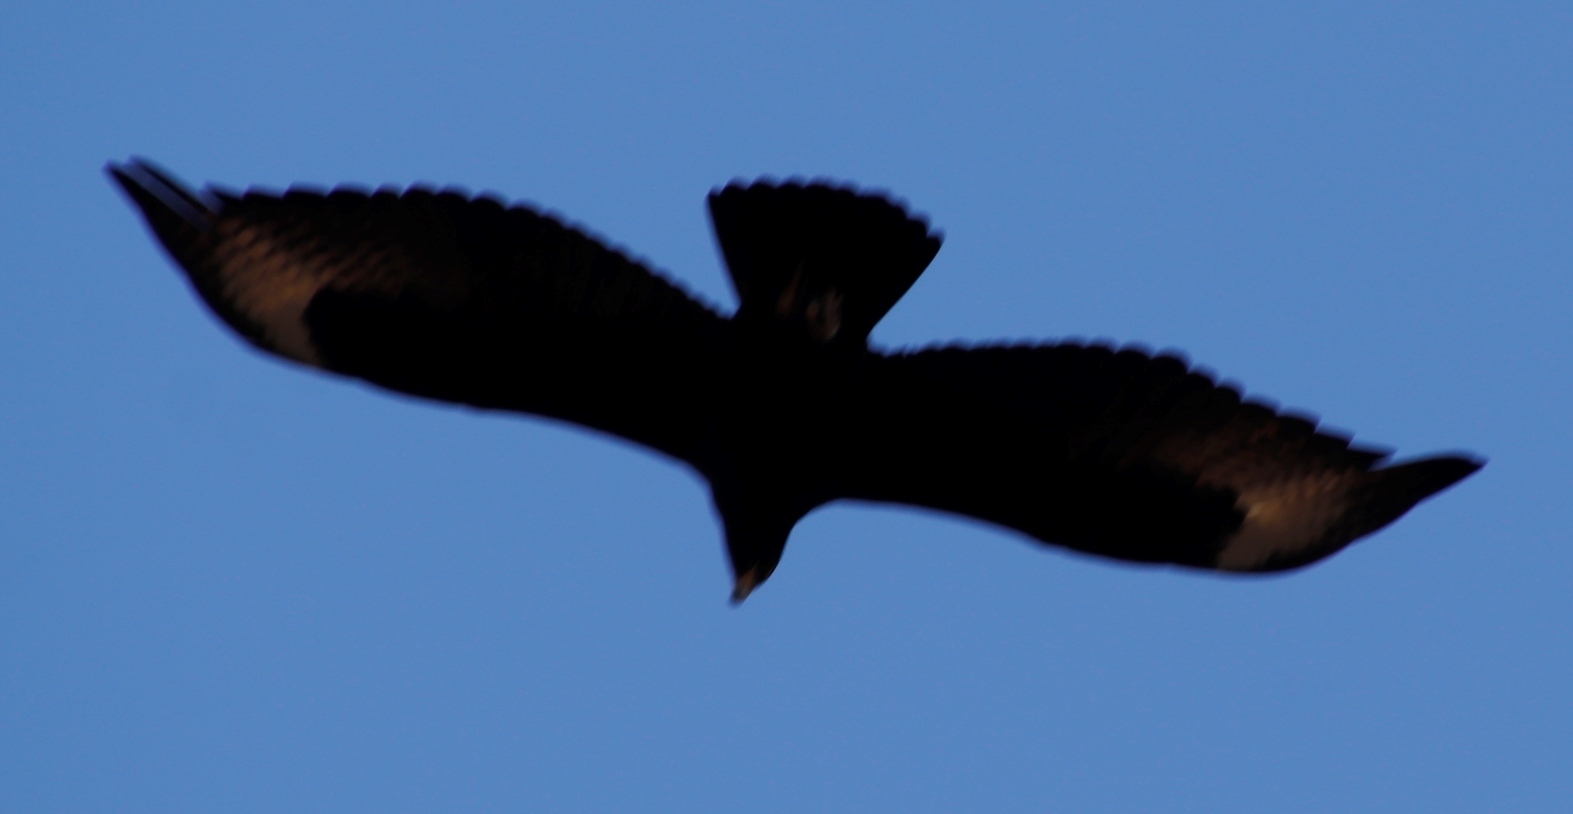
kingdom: Animalia
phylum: Chordata
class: Aves
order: Accipitriformes
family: Accipitridae
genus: Buteo
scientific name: Buteo rufofuscus
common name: Jackal buzzard
